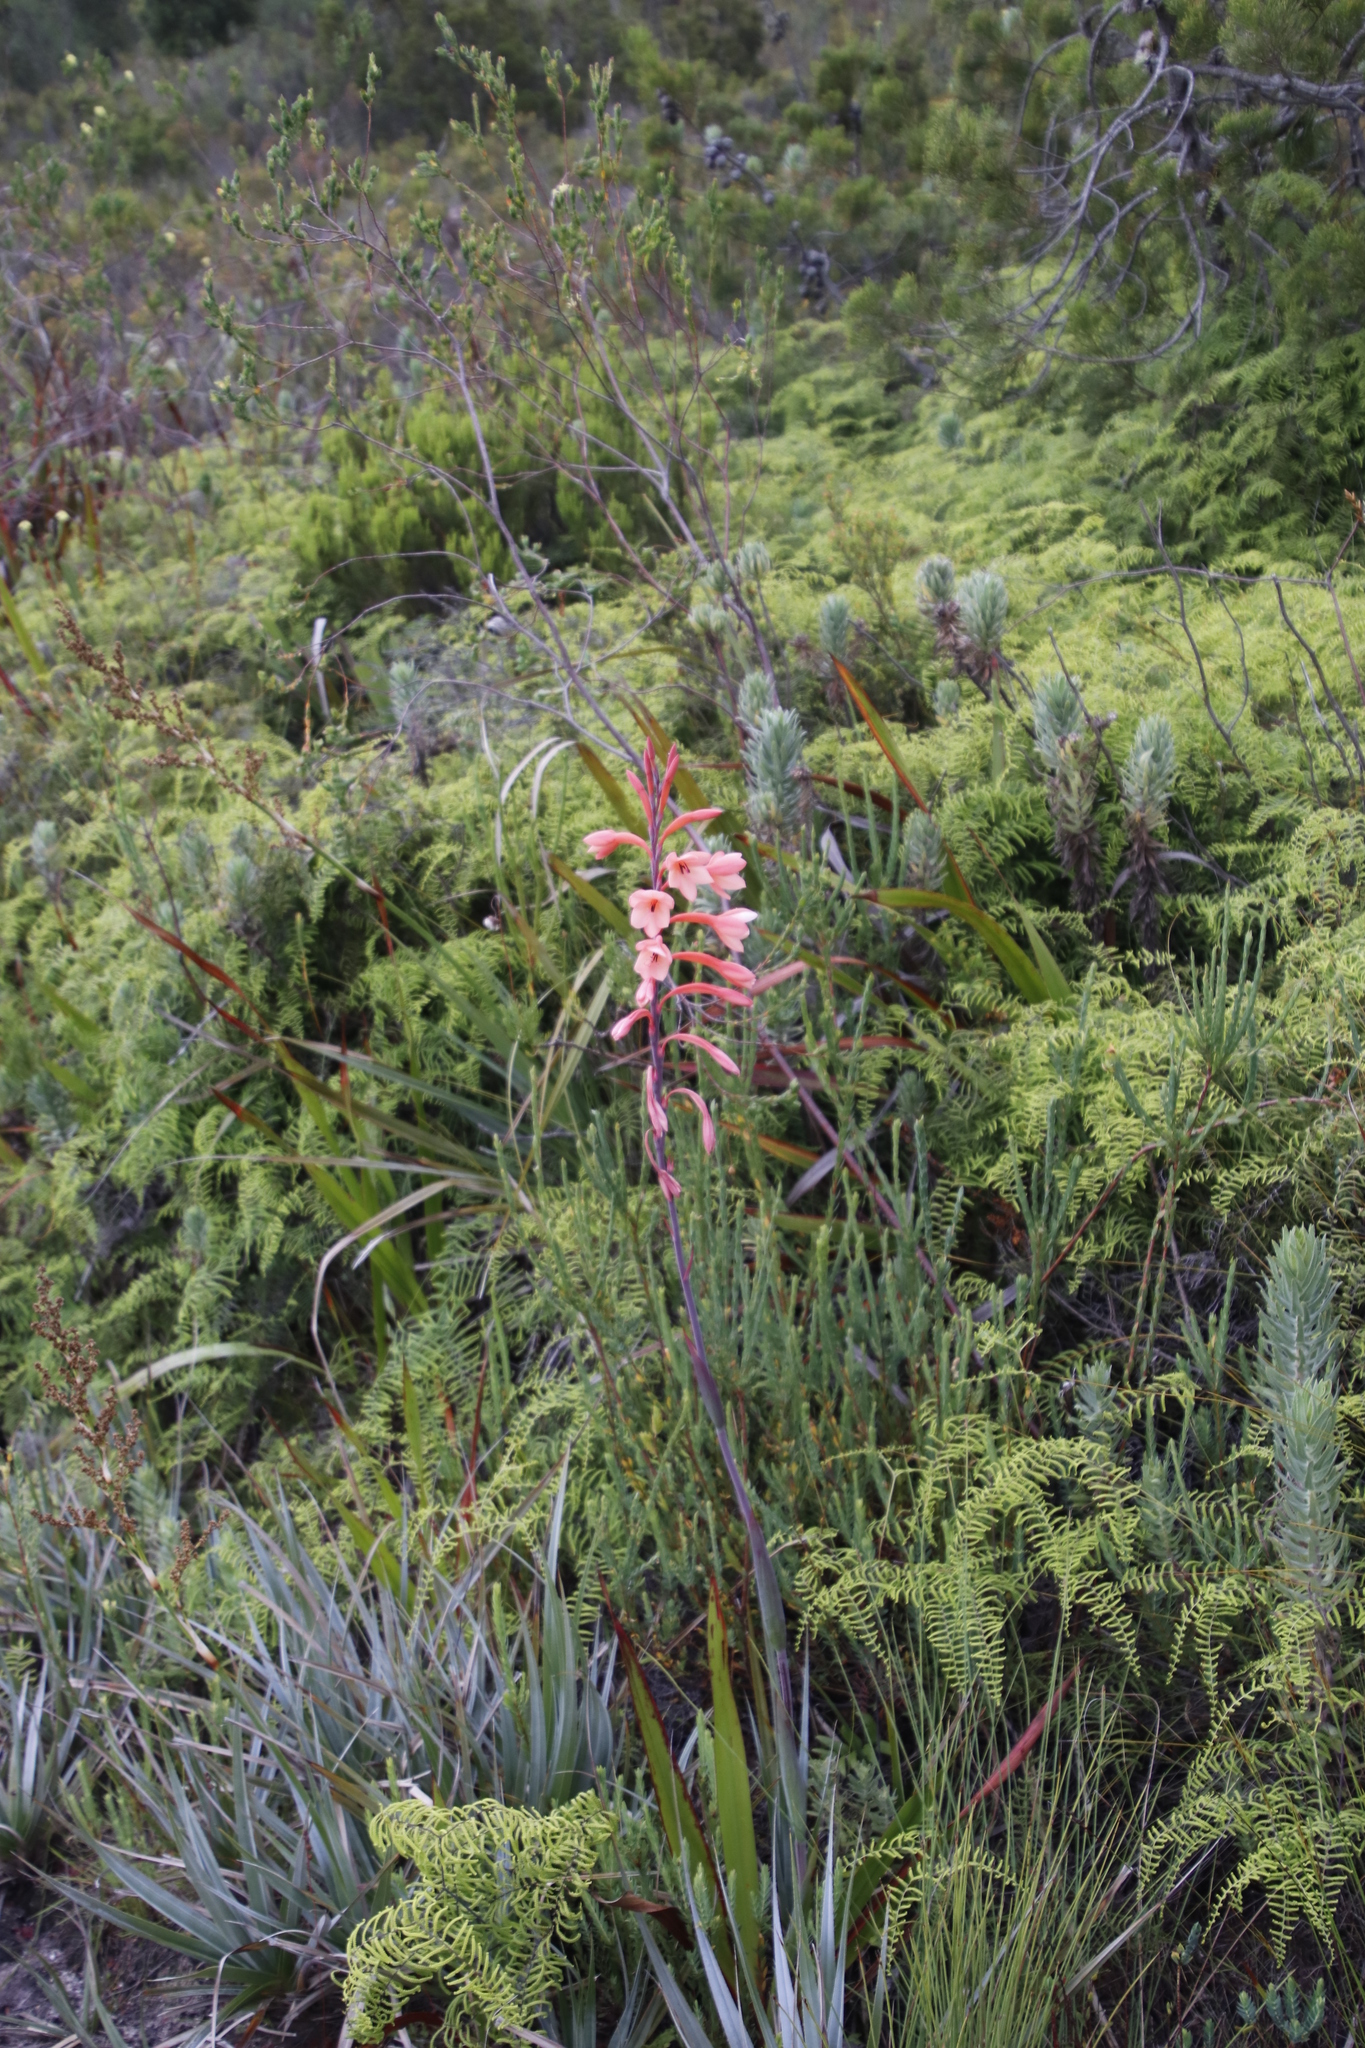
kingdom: Plantae
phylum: Tracheophyta
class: Liliopsida
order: Asparagales
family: Iridaceae
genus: Watsonia
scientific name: Watsonia tabularis
